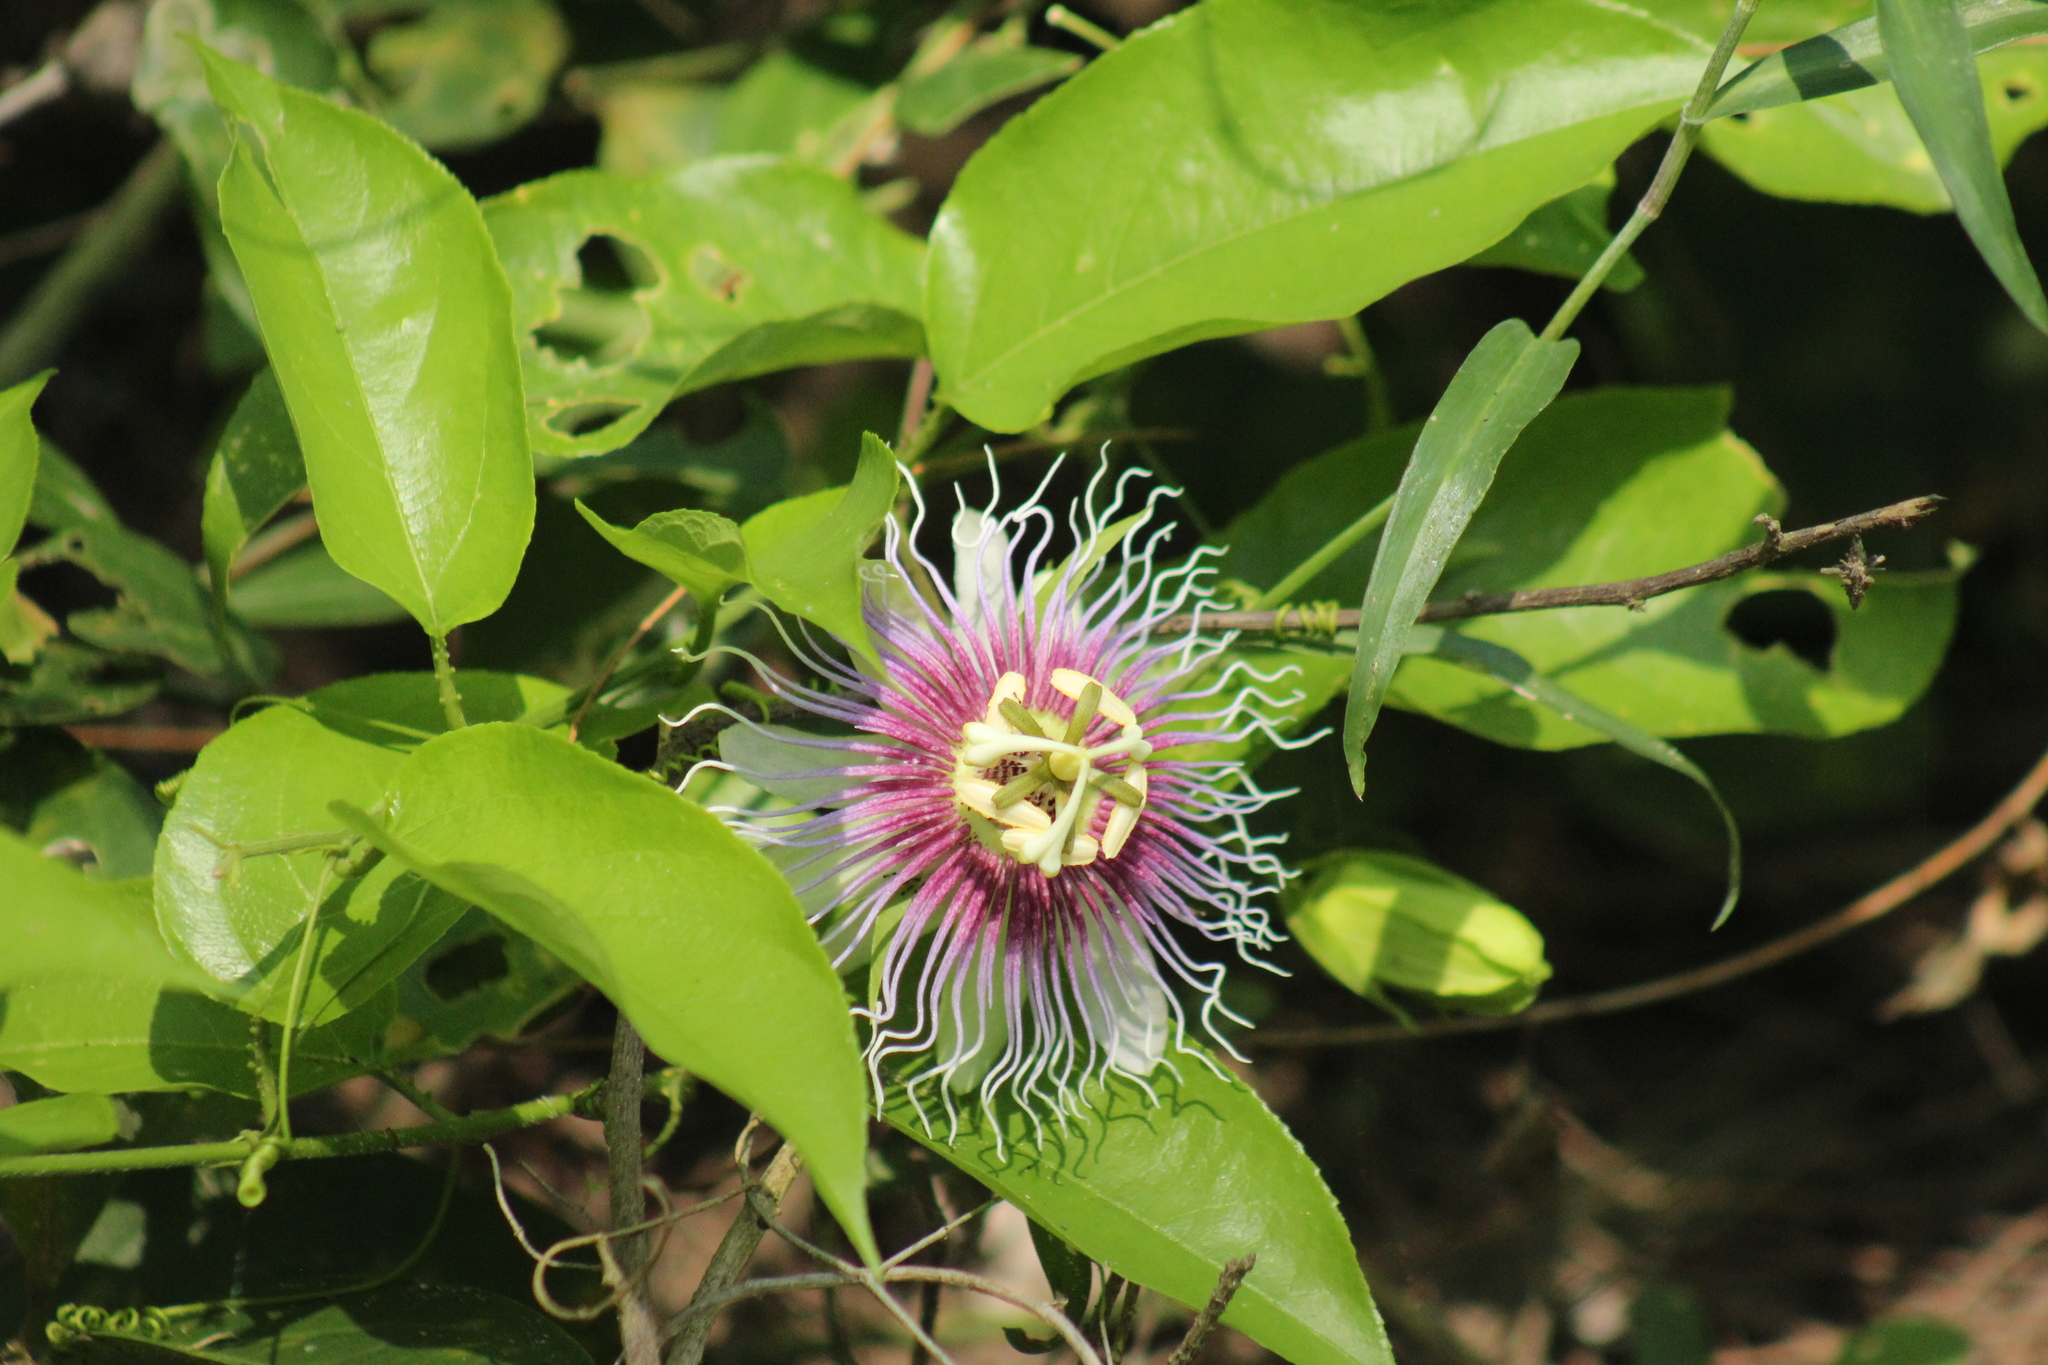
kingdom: Plantae
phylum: Tracheophyta
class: Magnoliopsida
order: Malpighiales
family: Passifloraceae
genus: Passiflora
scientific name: Passiflora serratifolia
